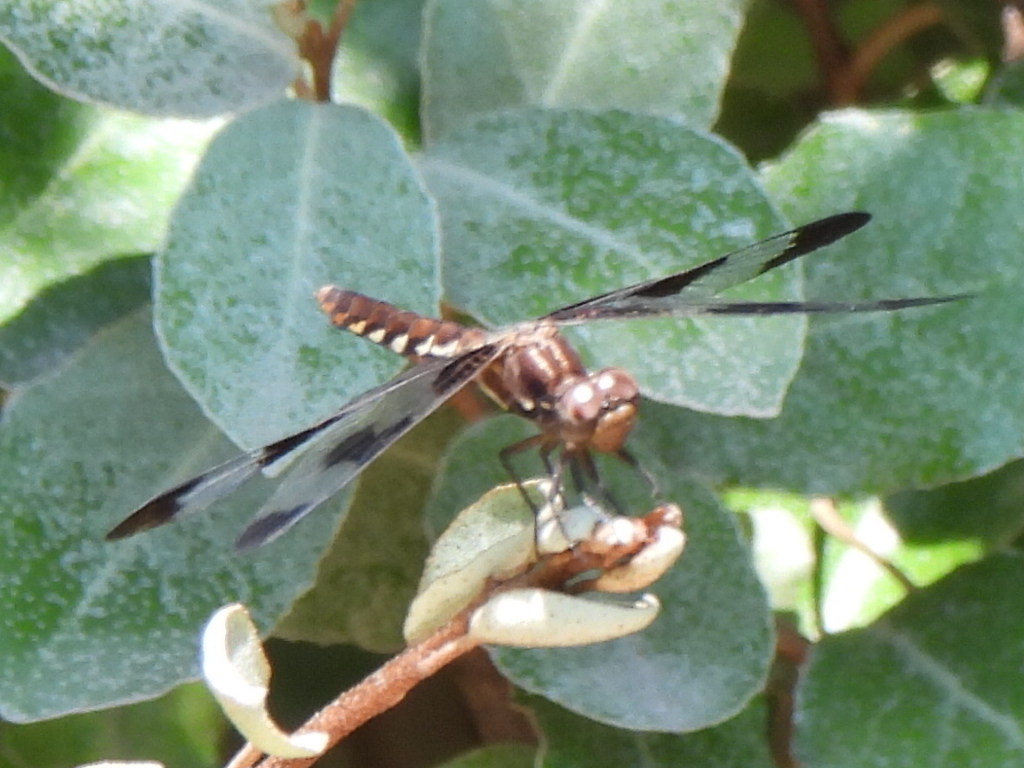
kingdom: Animalia
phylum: Arthropoda
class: Insecta
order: Odonata
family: Libellulidae
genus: Plathemis
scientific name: Plathemis lydia
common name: Common whitetail
